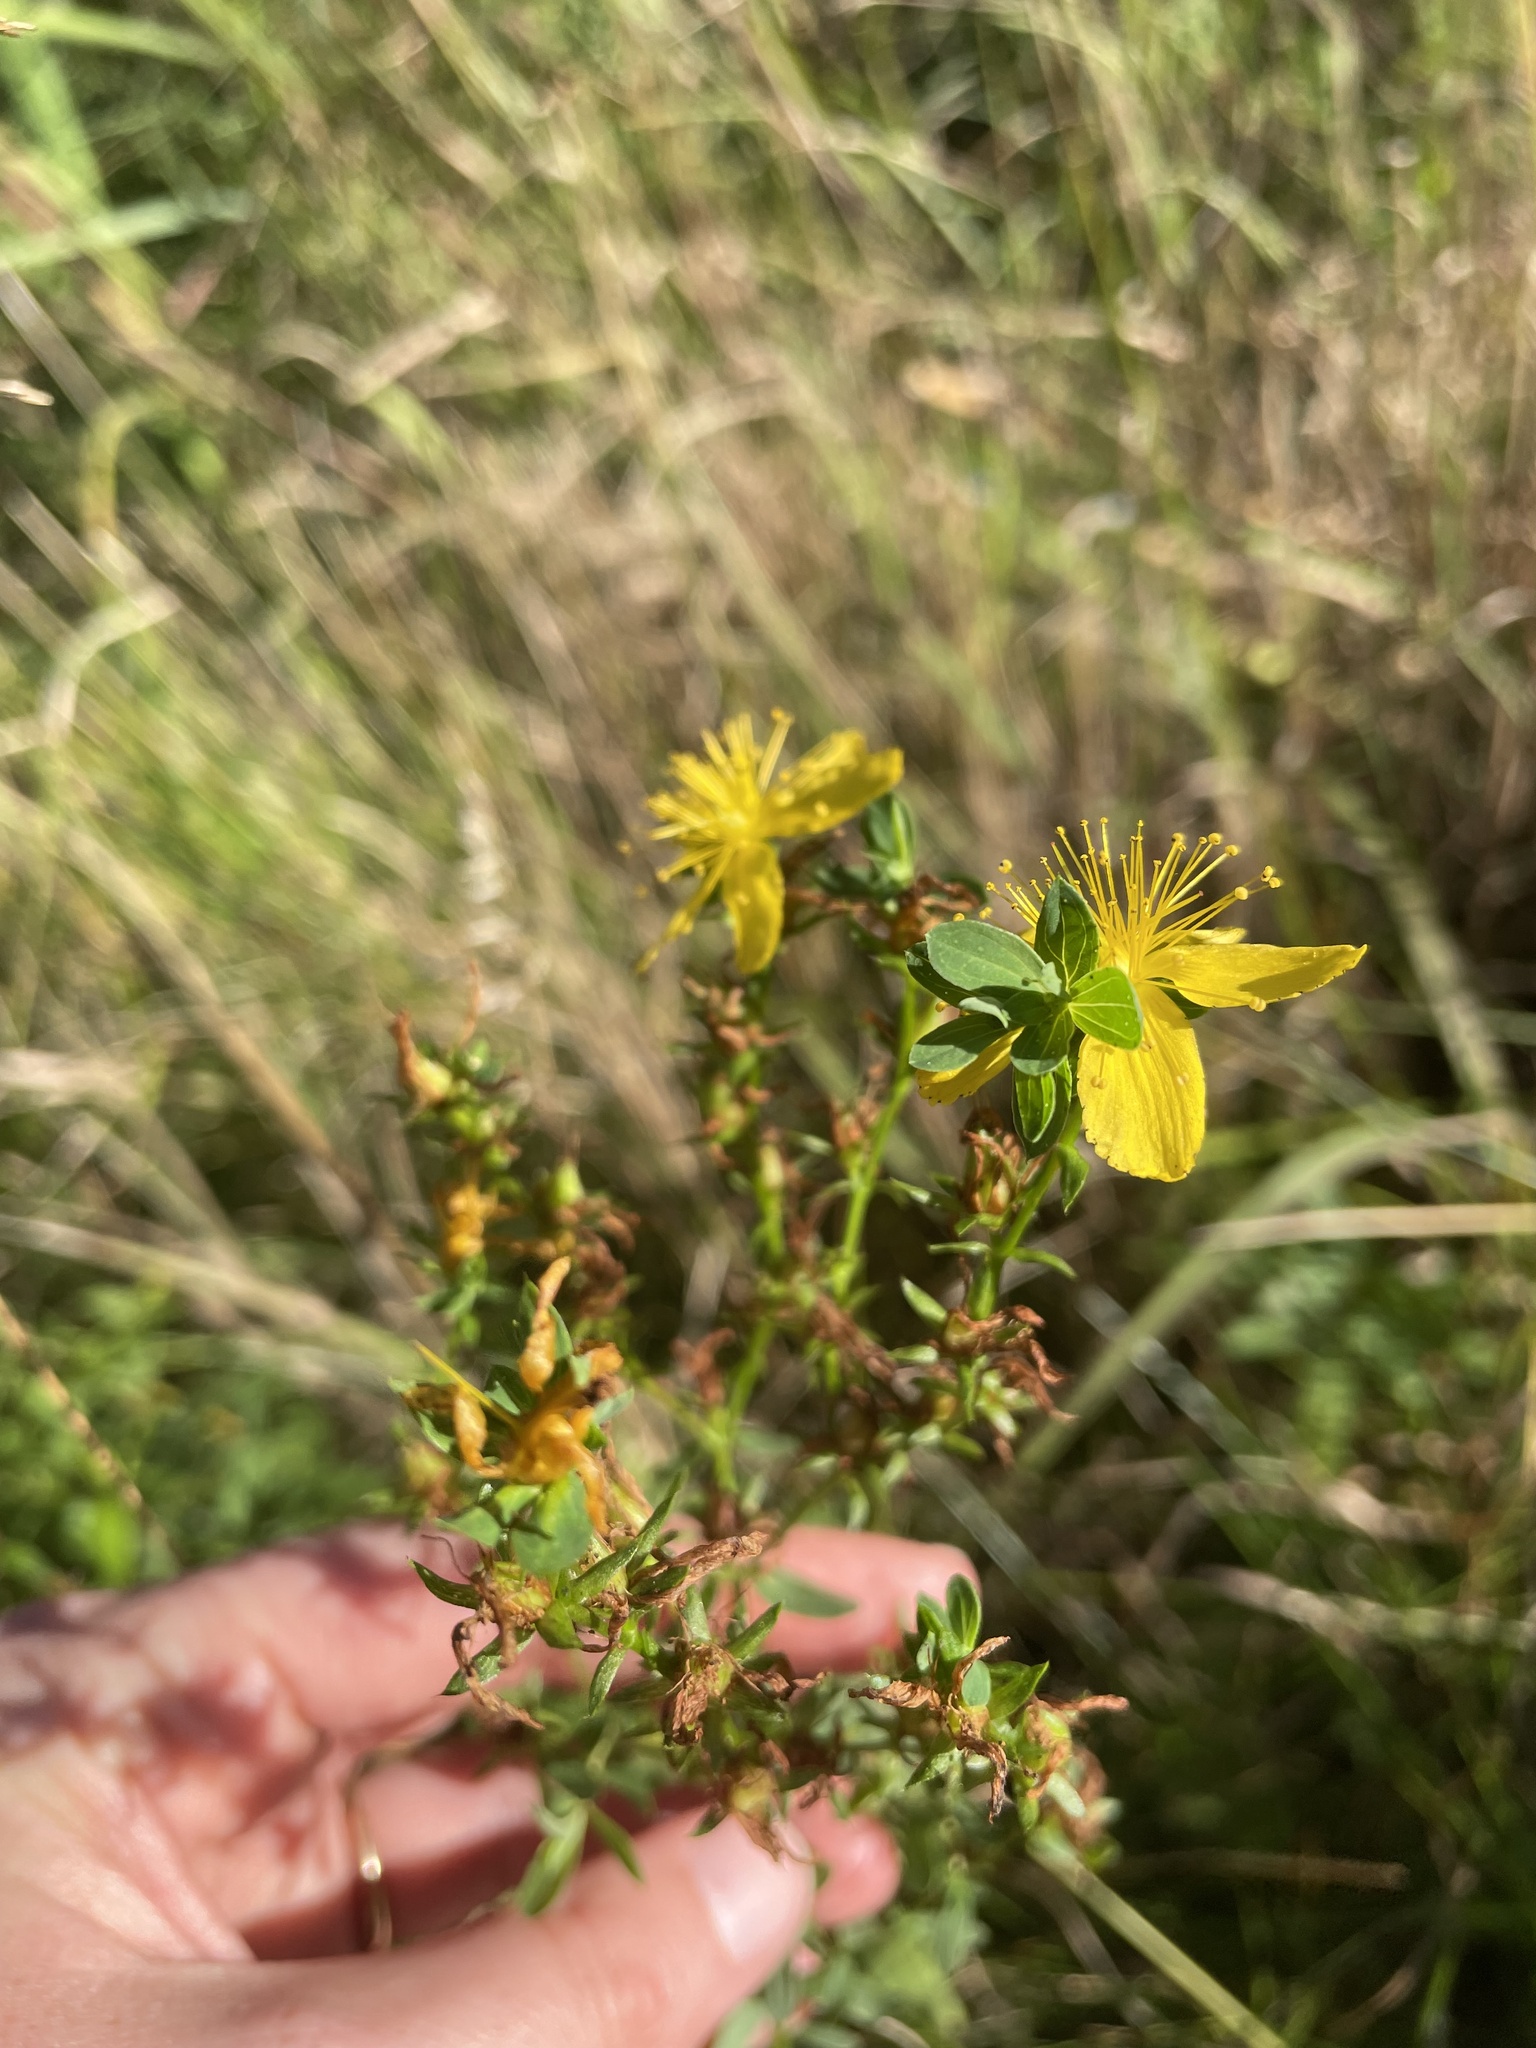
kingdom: Plantae
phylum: Tracheophyta
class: Magnoliopsida
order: Malpighiales
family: Hypericaceae
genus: Hypericum
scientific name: Hypericum perforatum
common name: Common st. johnswort
